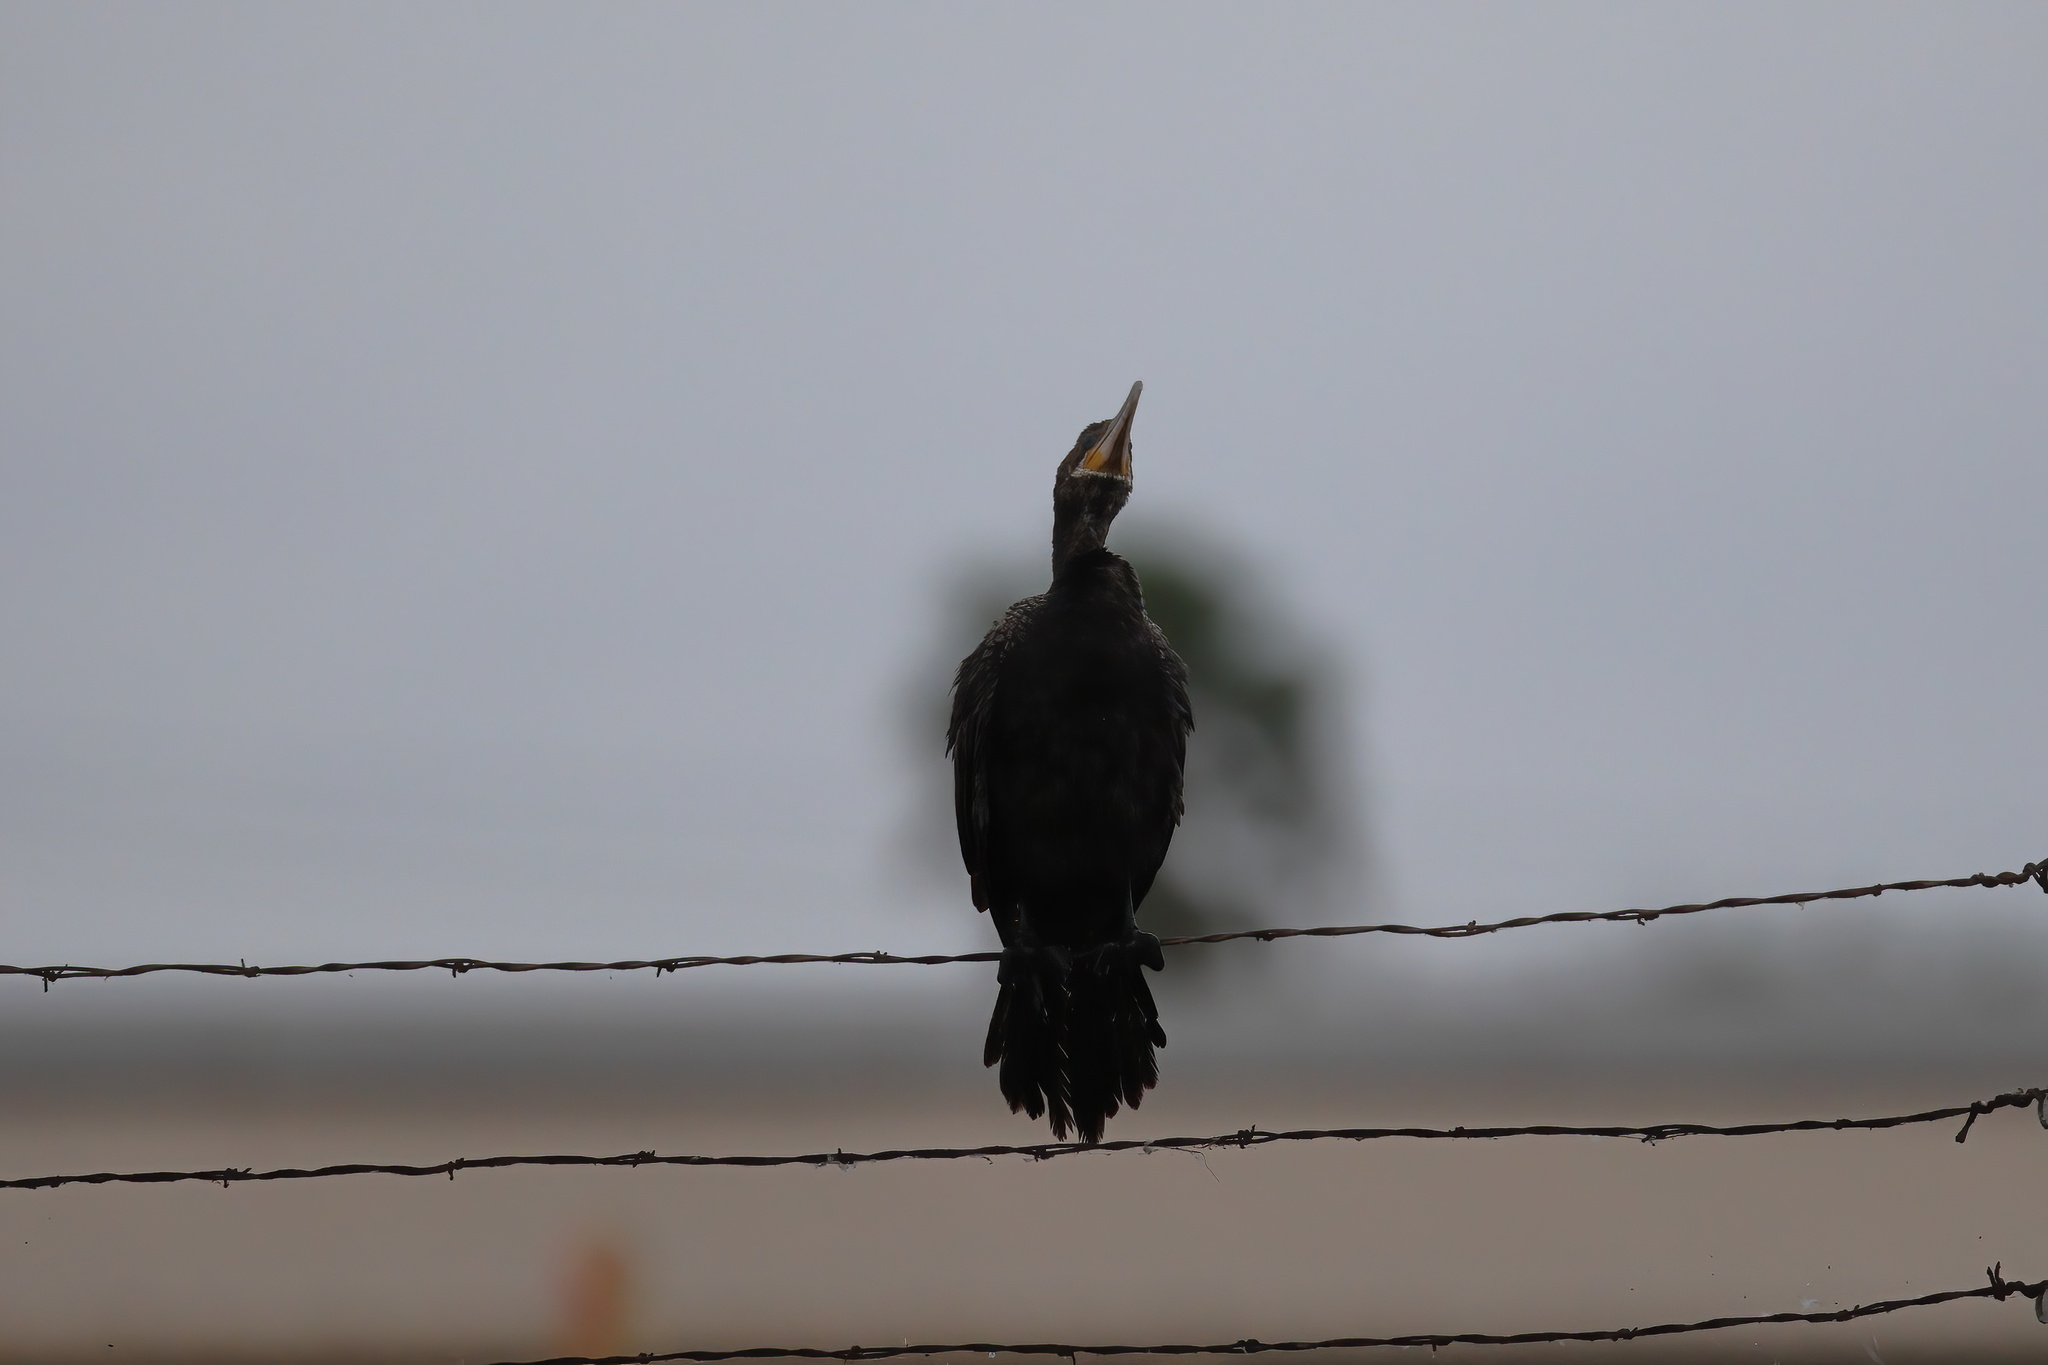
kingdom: Animalia
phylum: Chordata
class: Aves
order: Suliformes
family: Phalacrocoracidae
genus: Phalacrocorax
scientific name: Phalacrocorax brasilianus
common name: Neotropic cormorant
